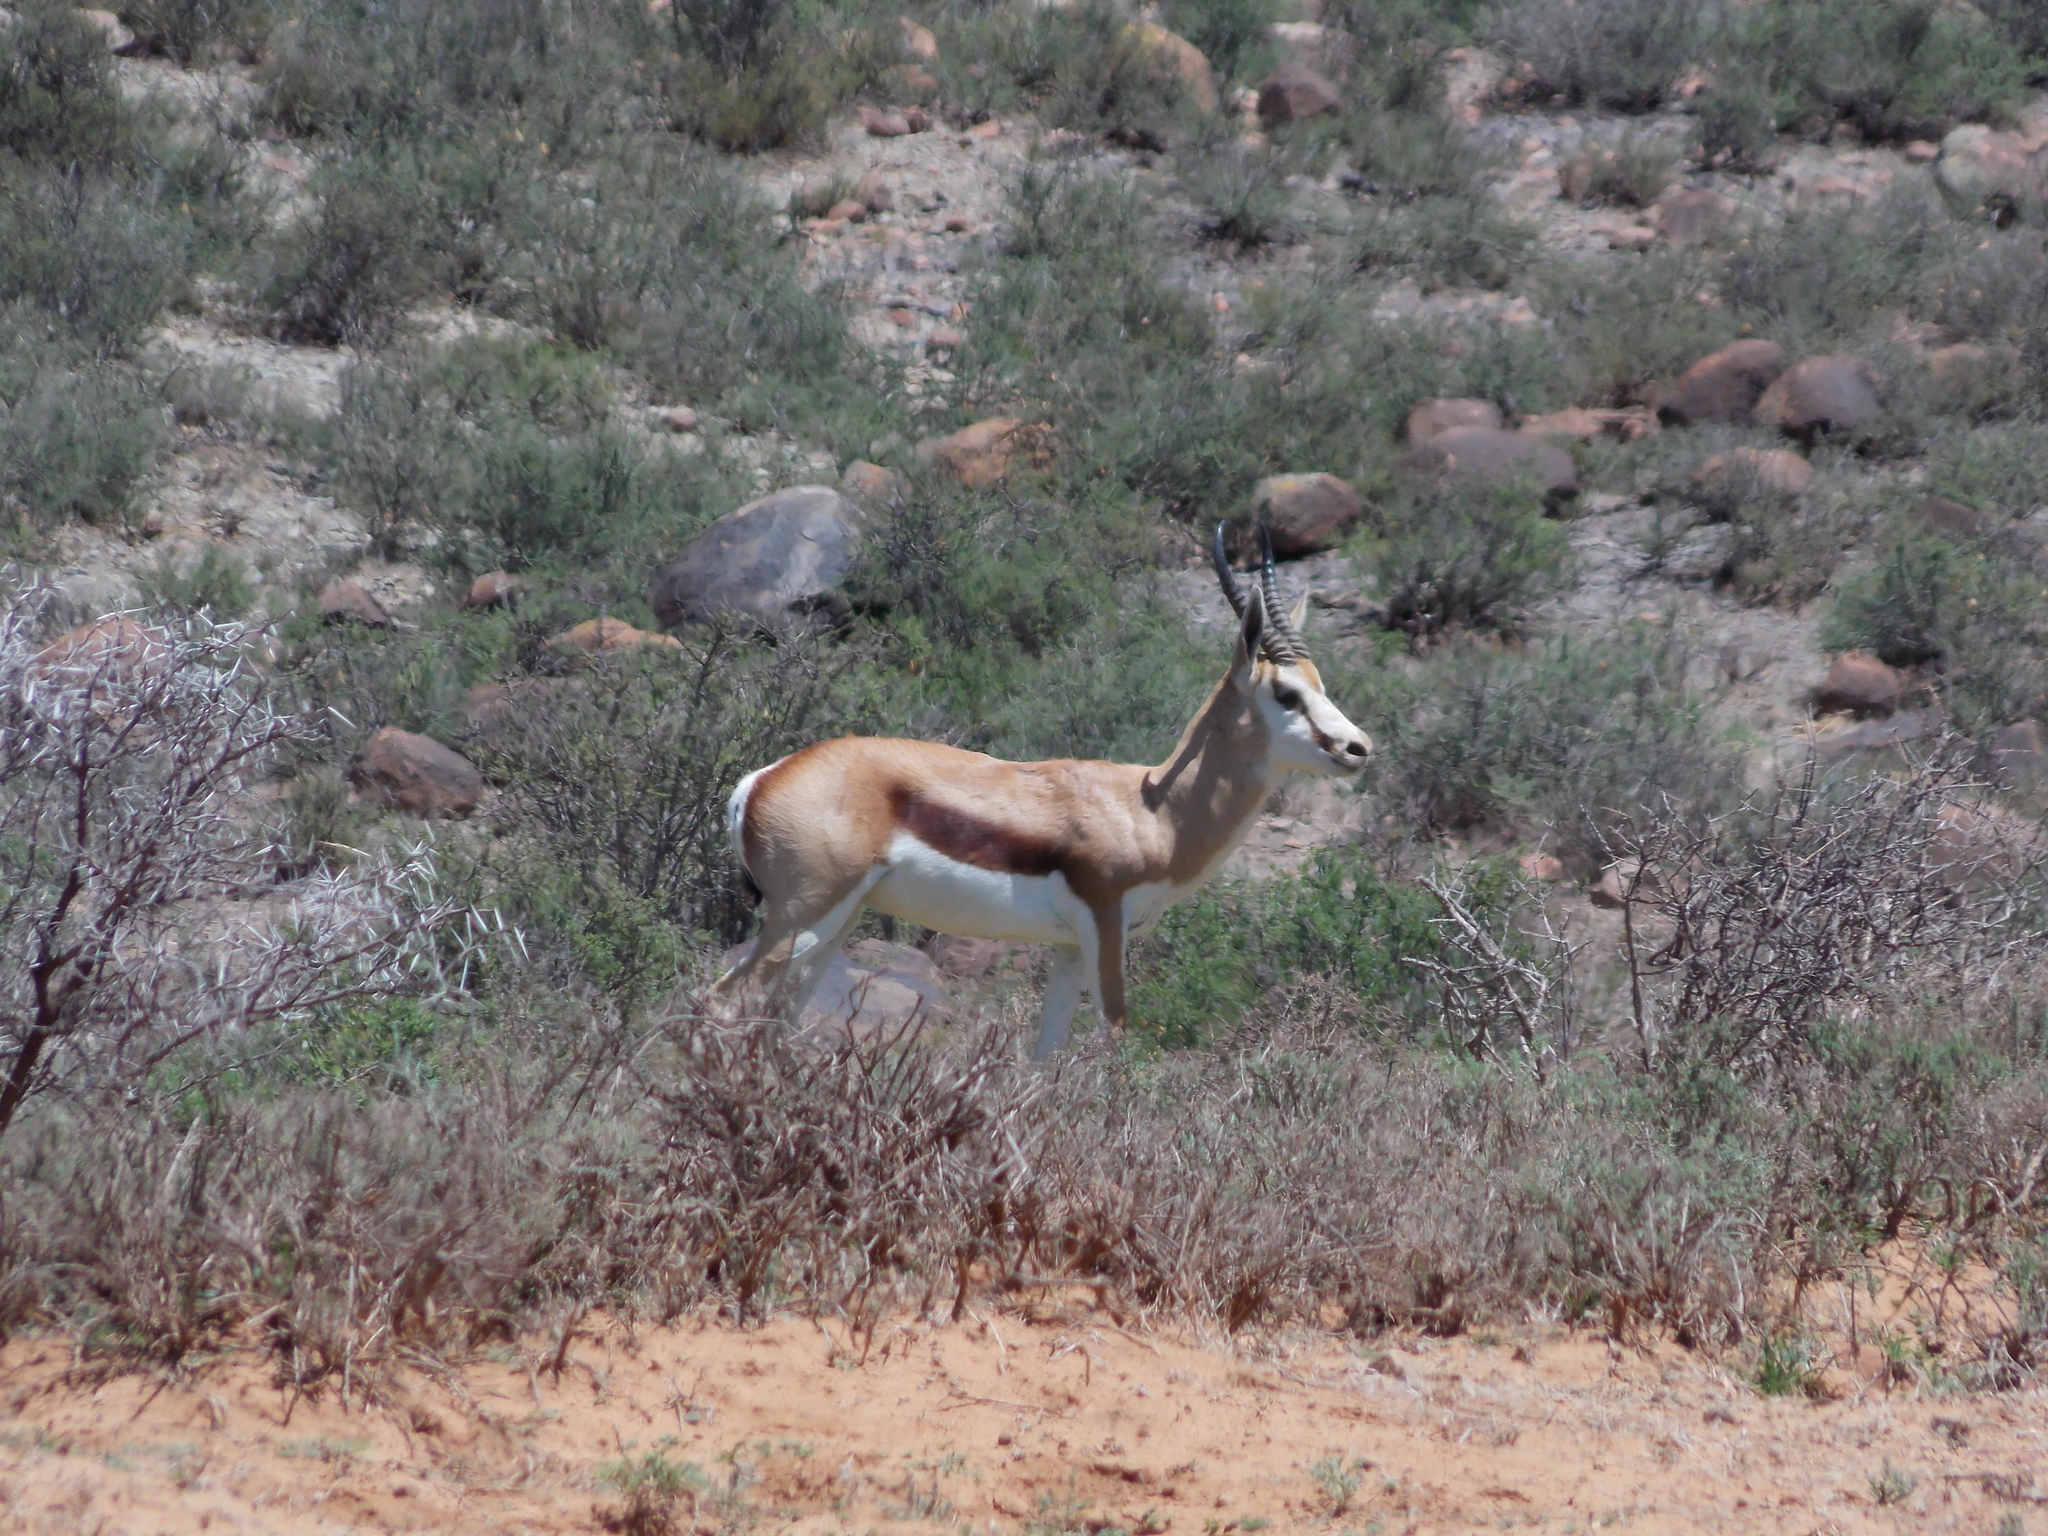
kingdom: Animalia
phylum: Chordata
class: Mammalia
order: Artiodactyla
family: Bovidae
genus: Antidorcas
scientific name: Antidorcas marsupialis
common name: Springbok
